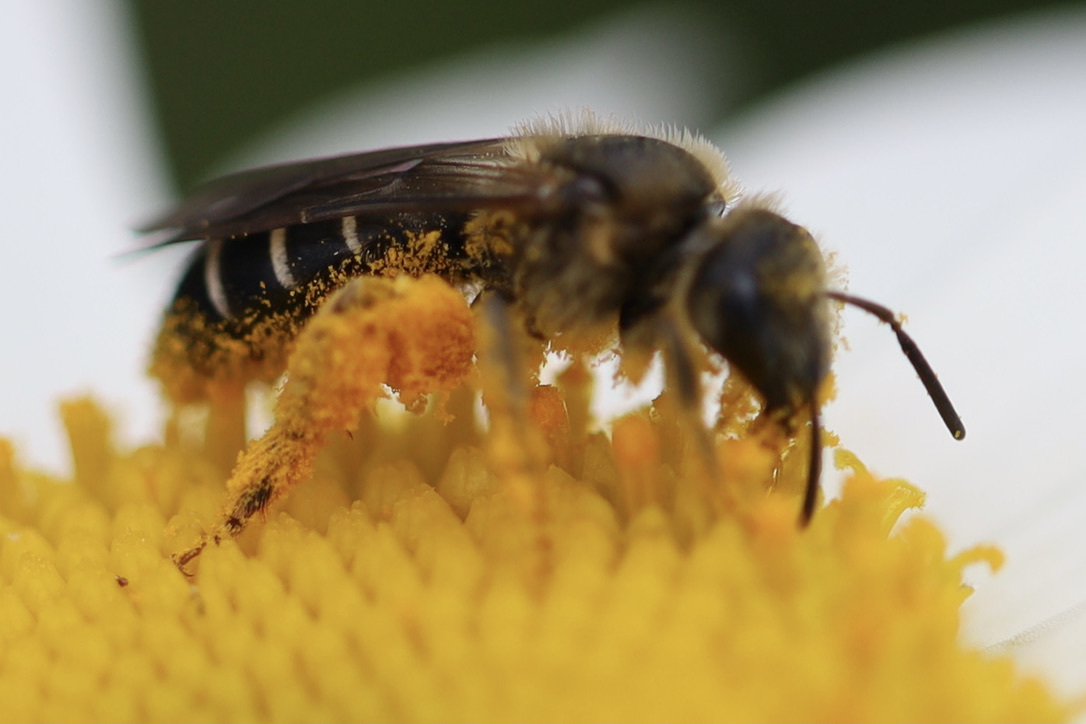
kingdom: Animalia
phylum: Arthropoda
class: Insecta
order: Hymenoptera
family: Halictidae
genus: Halictus
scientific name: Halictus rubicundus
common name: Orange-legged furrow bee
